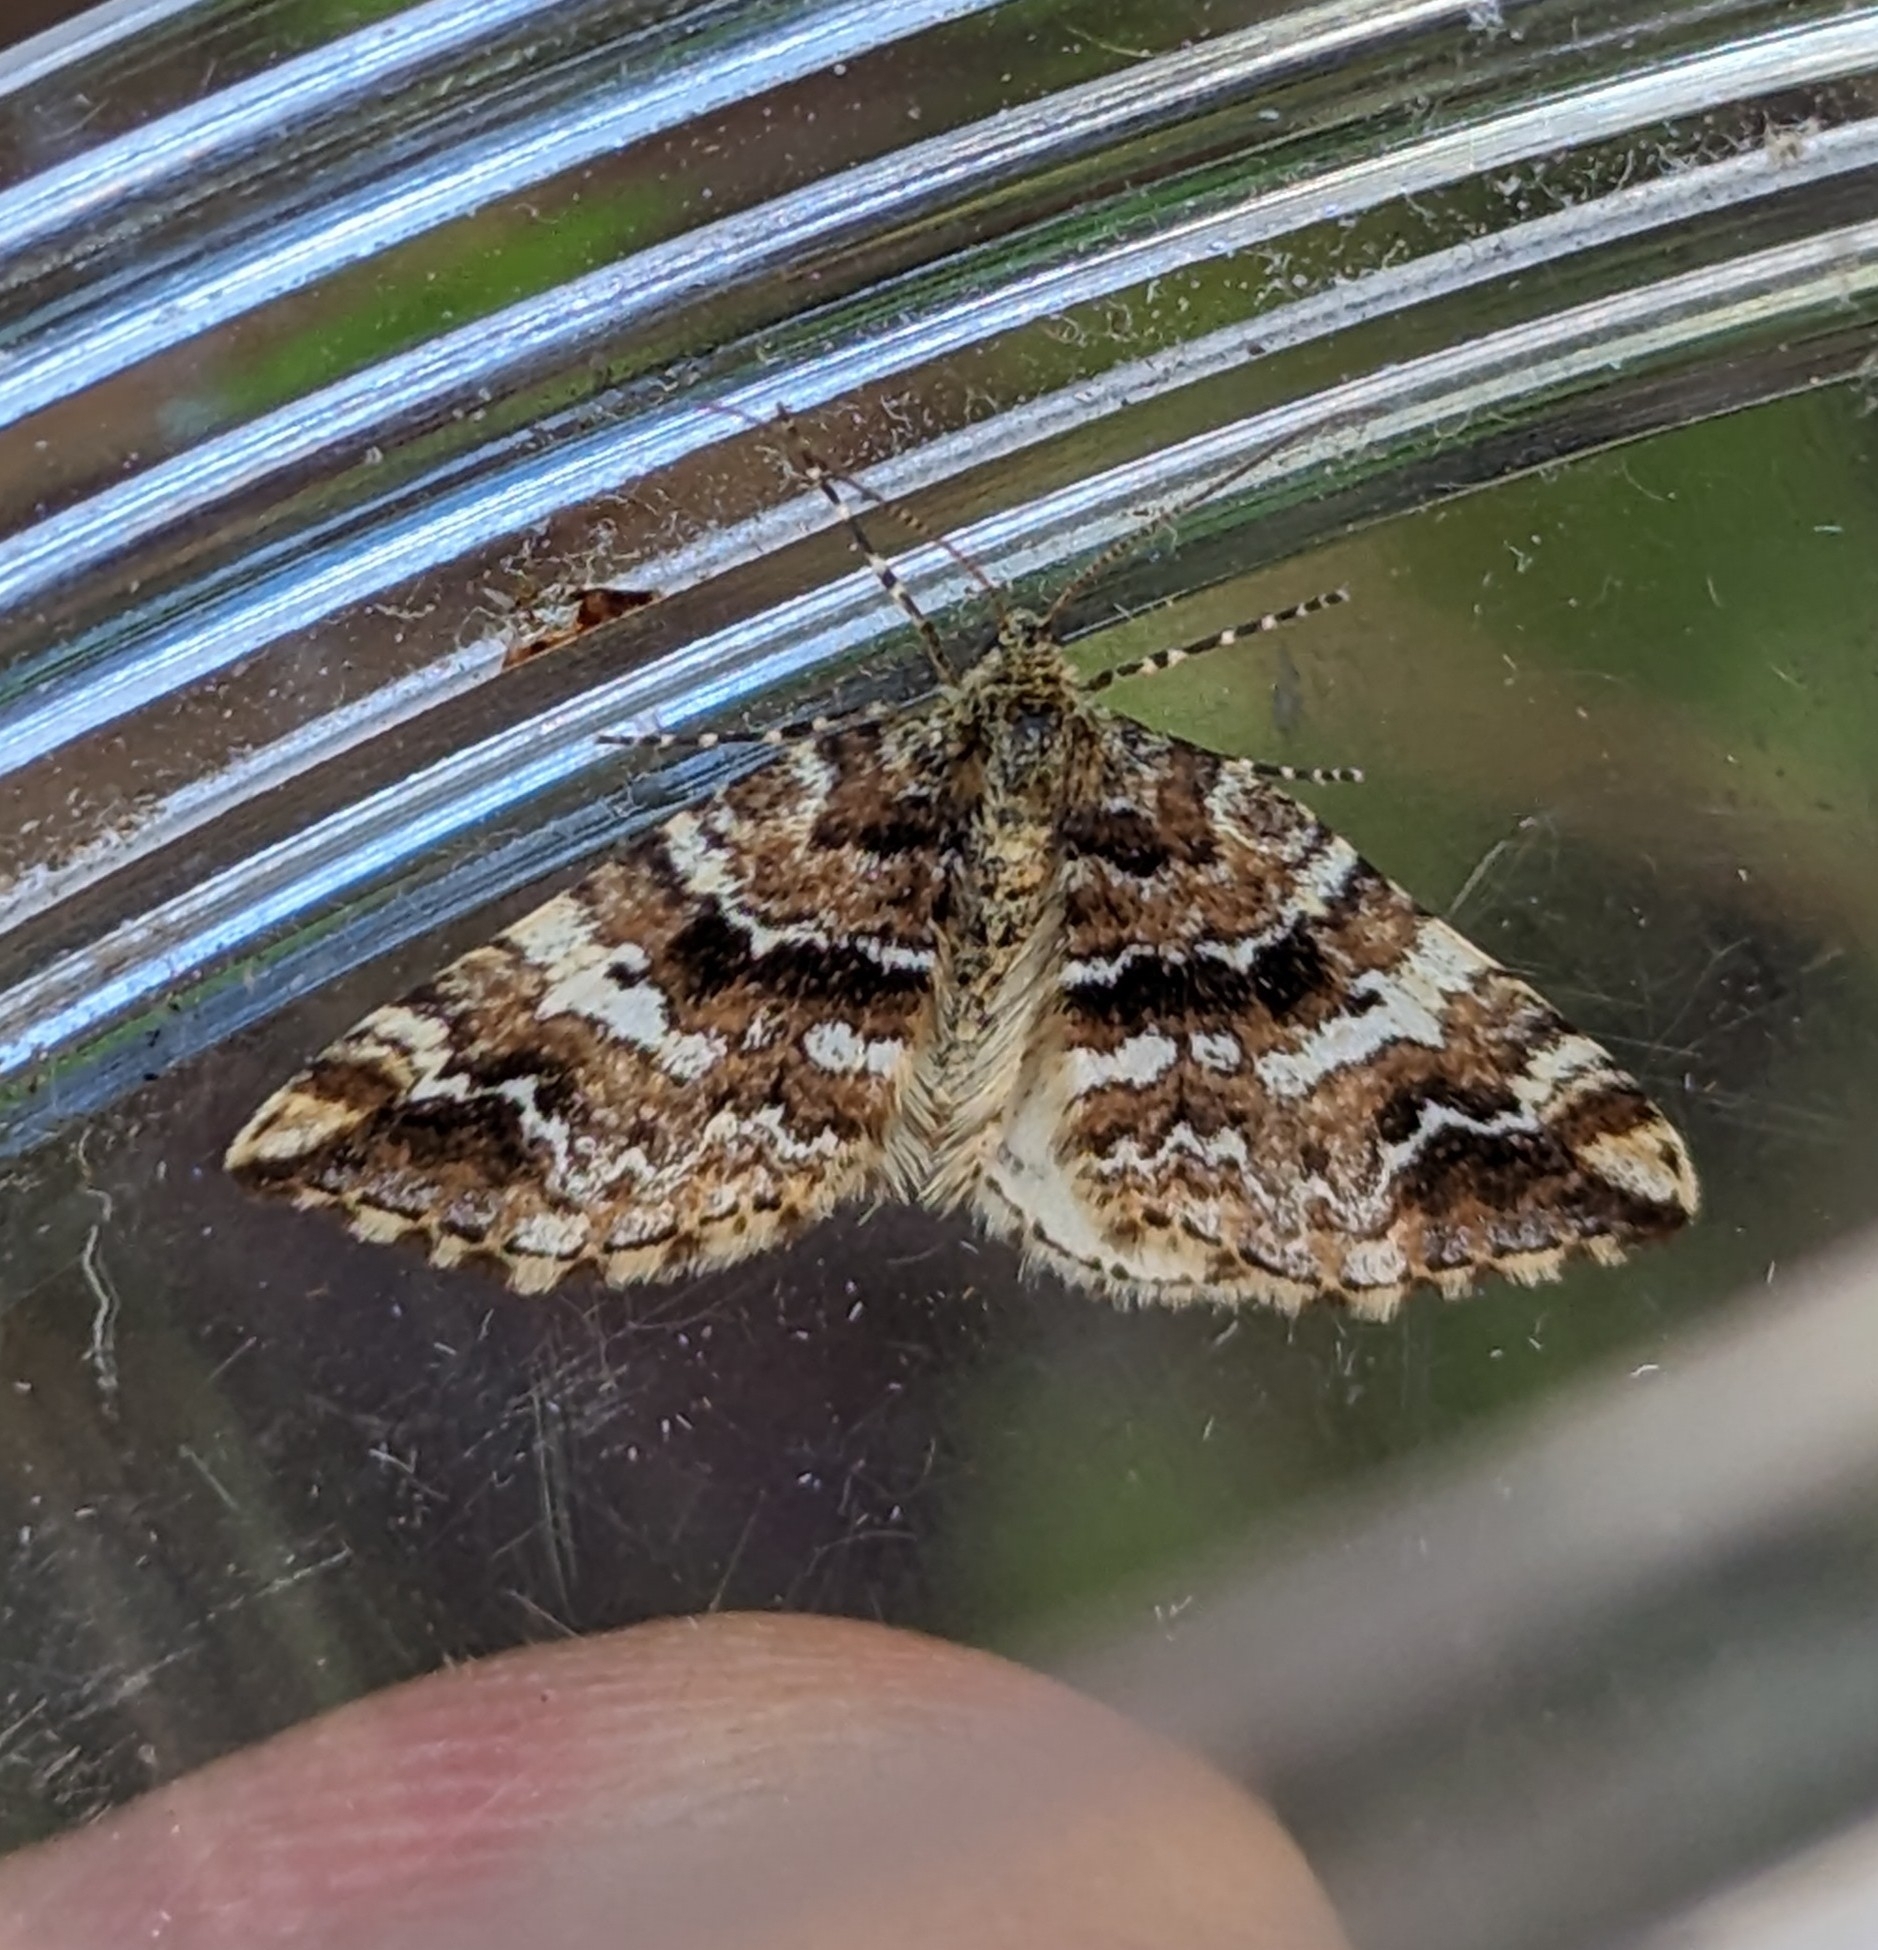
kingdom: Animalia
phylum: Arthropoda
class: Insecta
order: Lepidoptera
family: Geometridae
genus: Enchoria
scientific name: Enchoria lacteata
